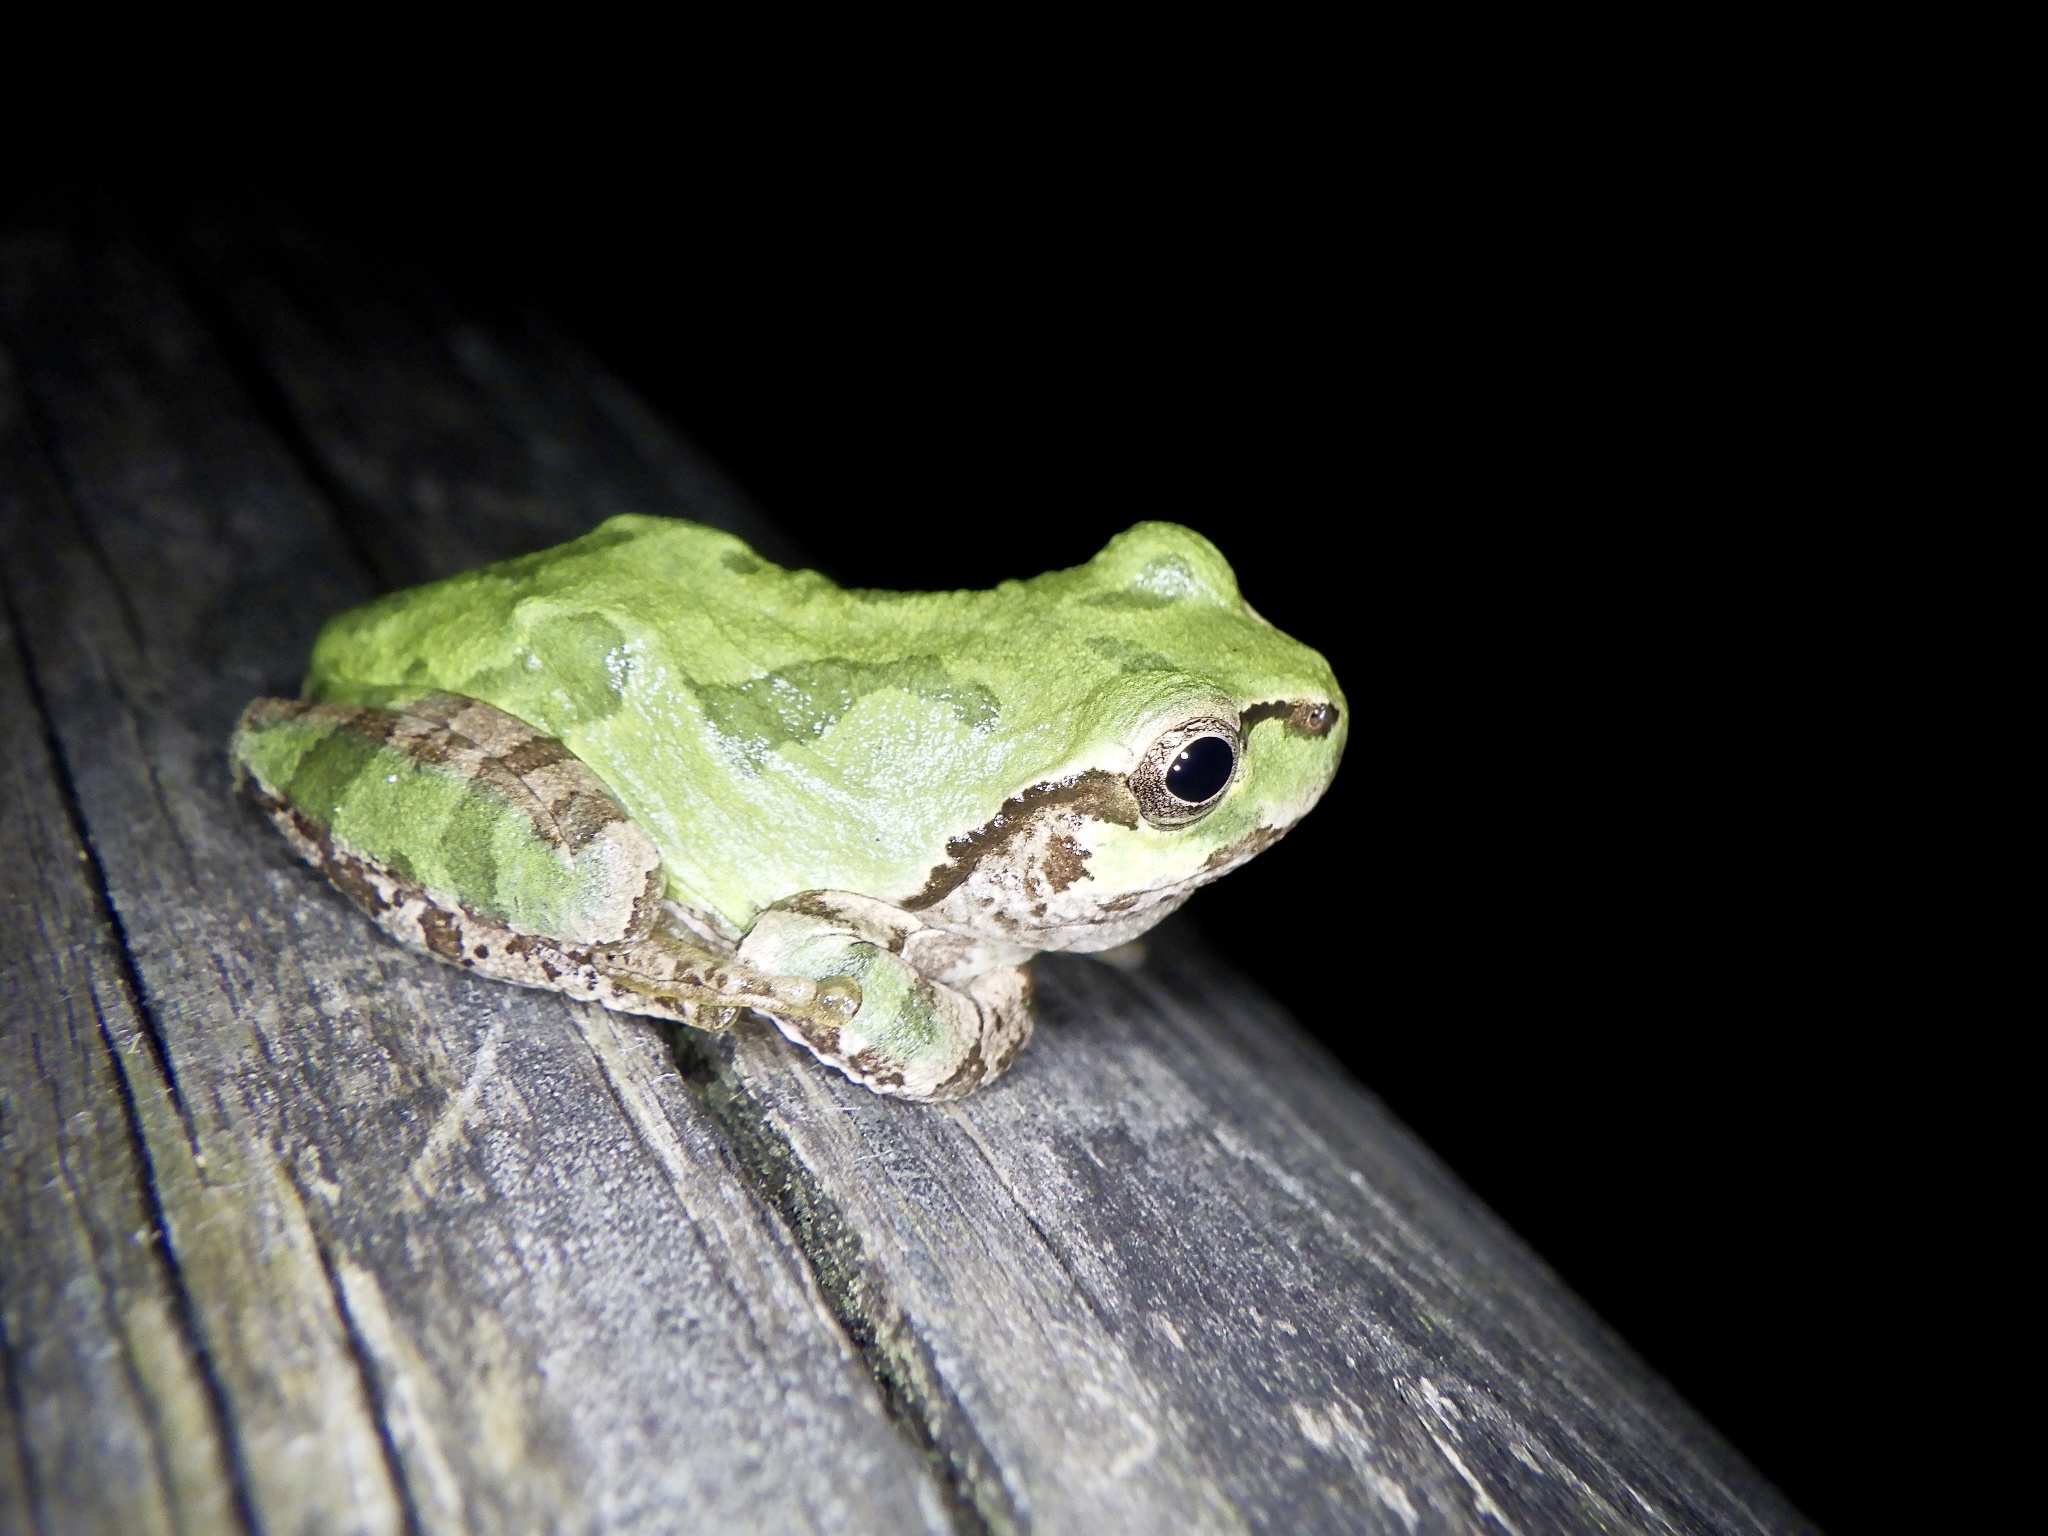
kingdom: Animalia
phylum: Chordata
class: Amphibia
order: Anura
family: Hylidae
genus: Dryophytes
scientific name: Dryophytes japonicus
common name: Japanese treefrog
